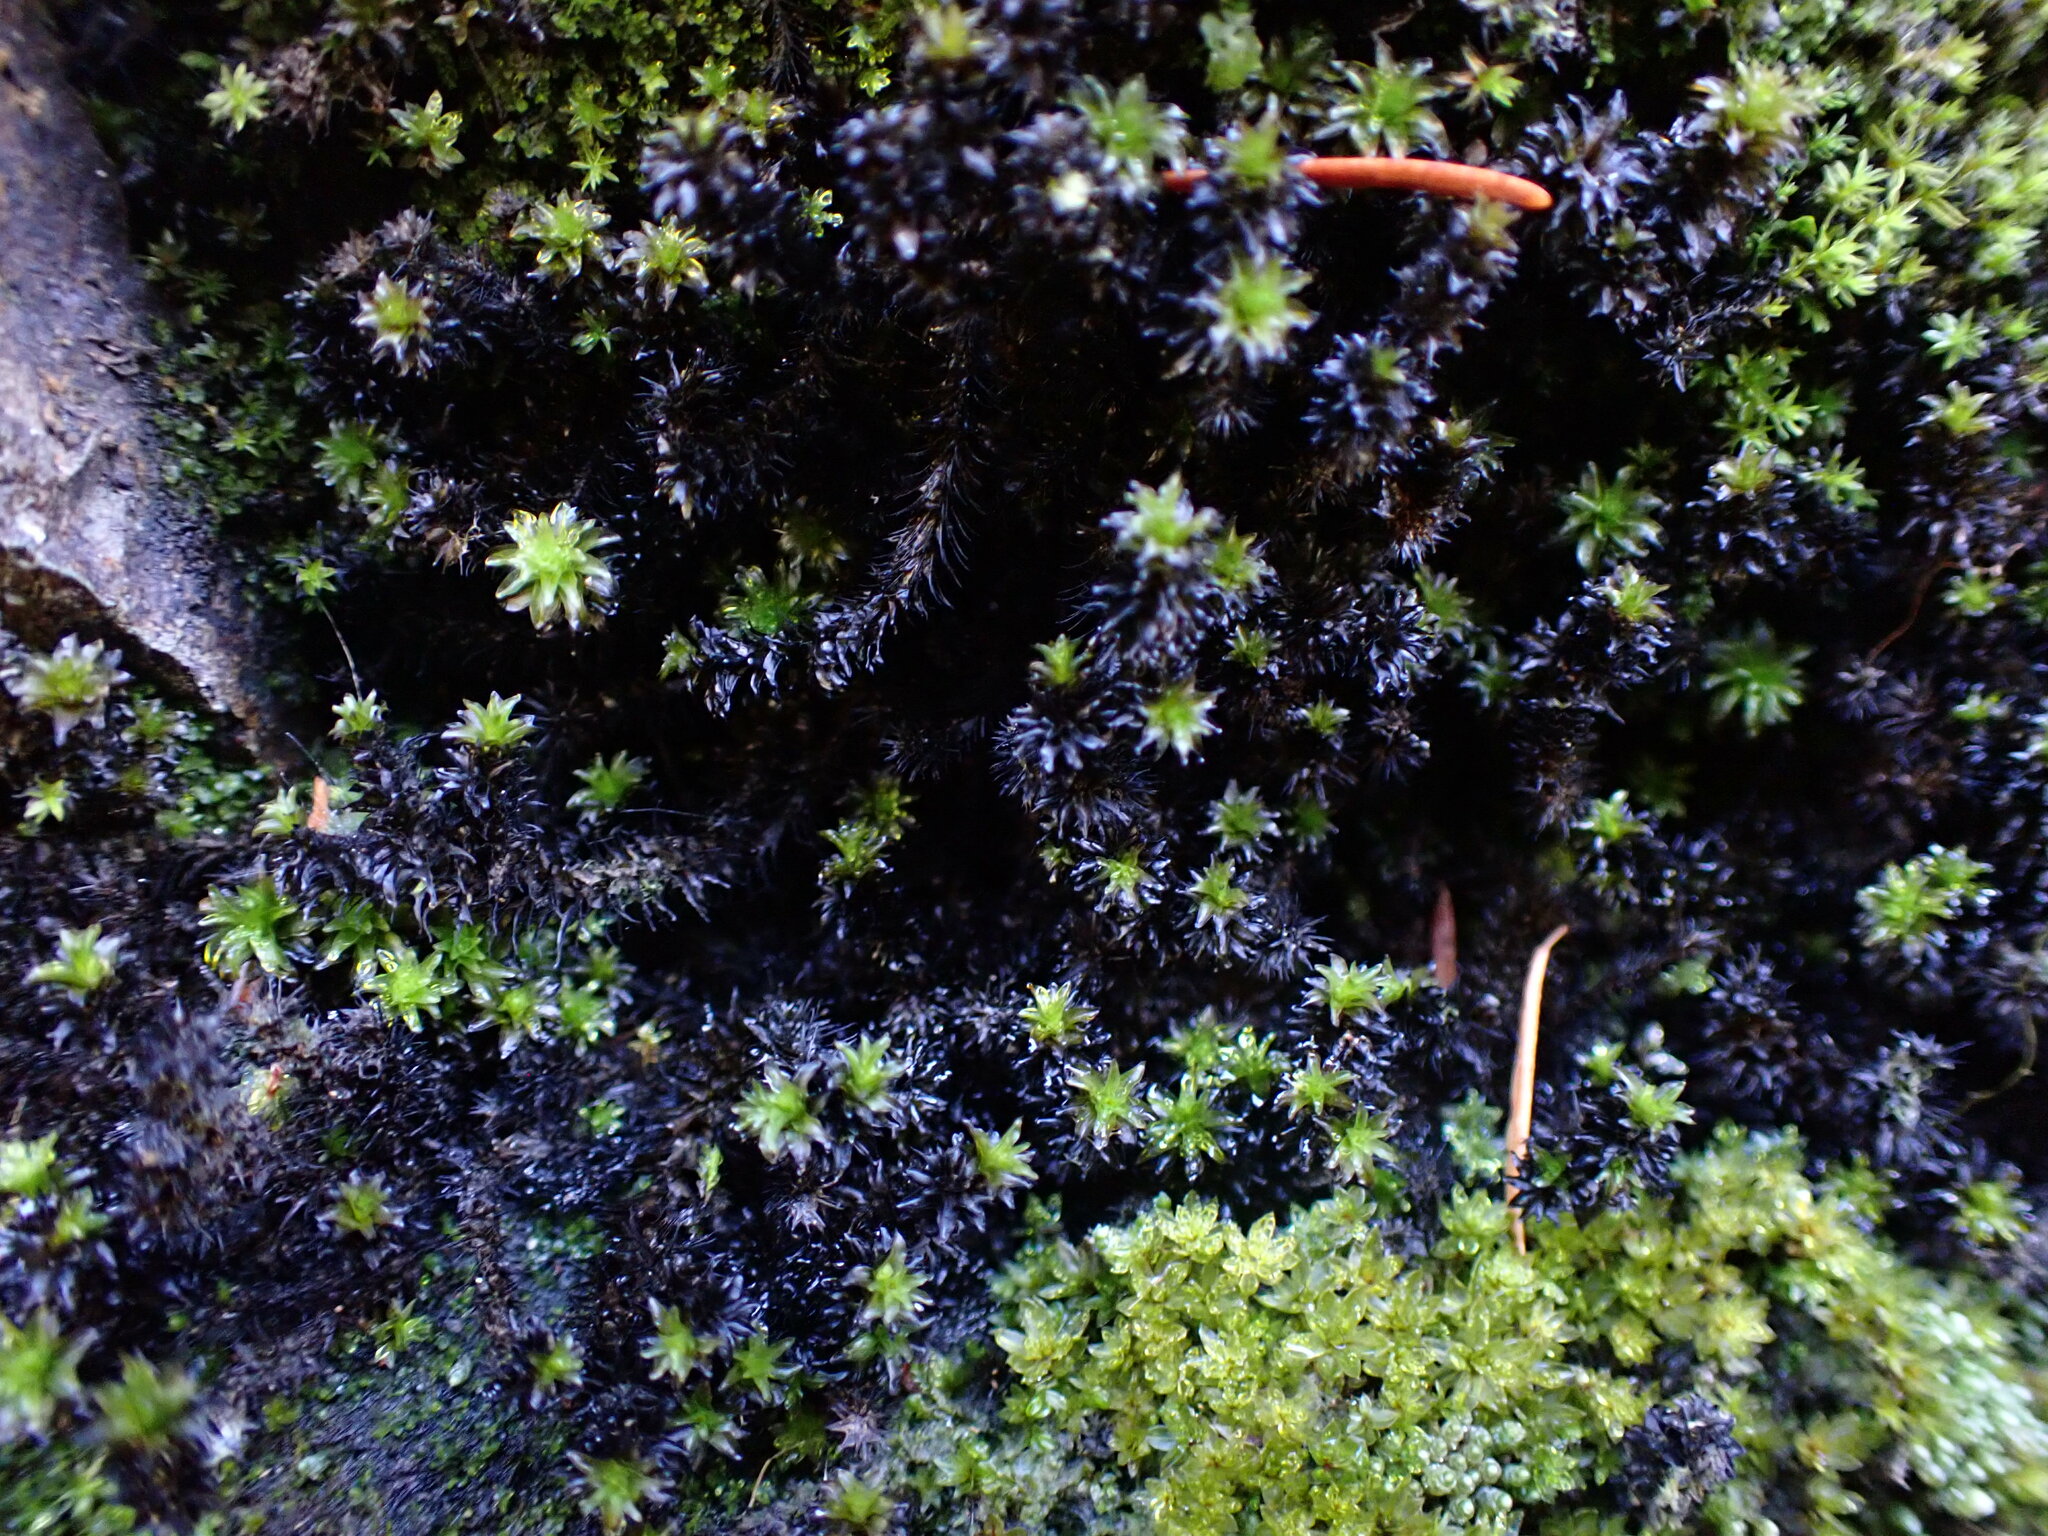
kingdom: Plantae
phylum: Bryophyta
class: Bryopsida
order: Scouleriales
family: Scouleriaceae
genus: Scouleria
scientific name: Scouleria aquatica
